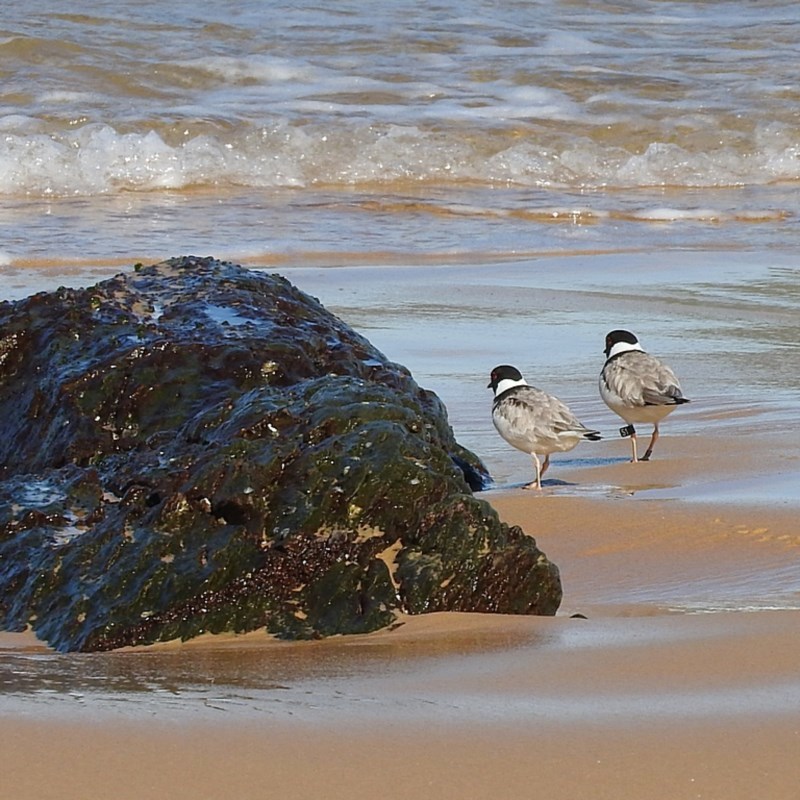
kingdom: Animalia
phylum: Chordata
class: Aves
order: Charadriiformes
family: Charadriidae
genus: Thinornis
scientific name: Thinornis cucullatus
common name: Hooded dotterel
